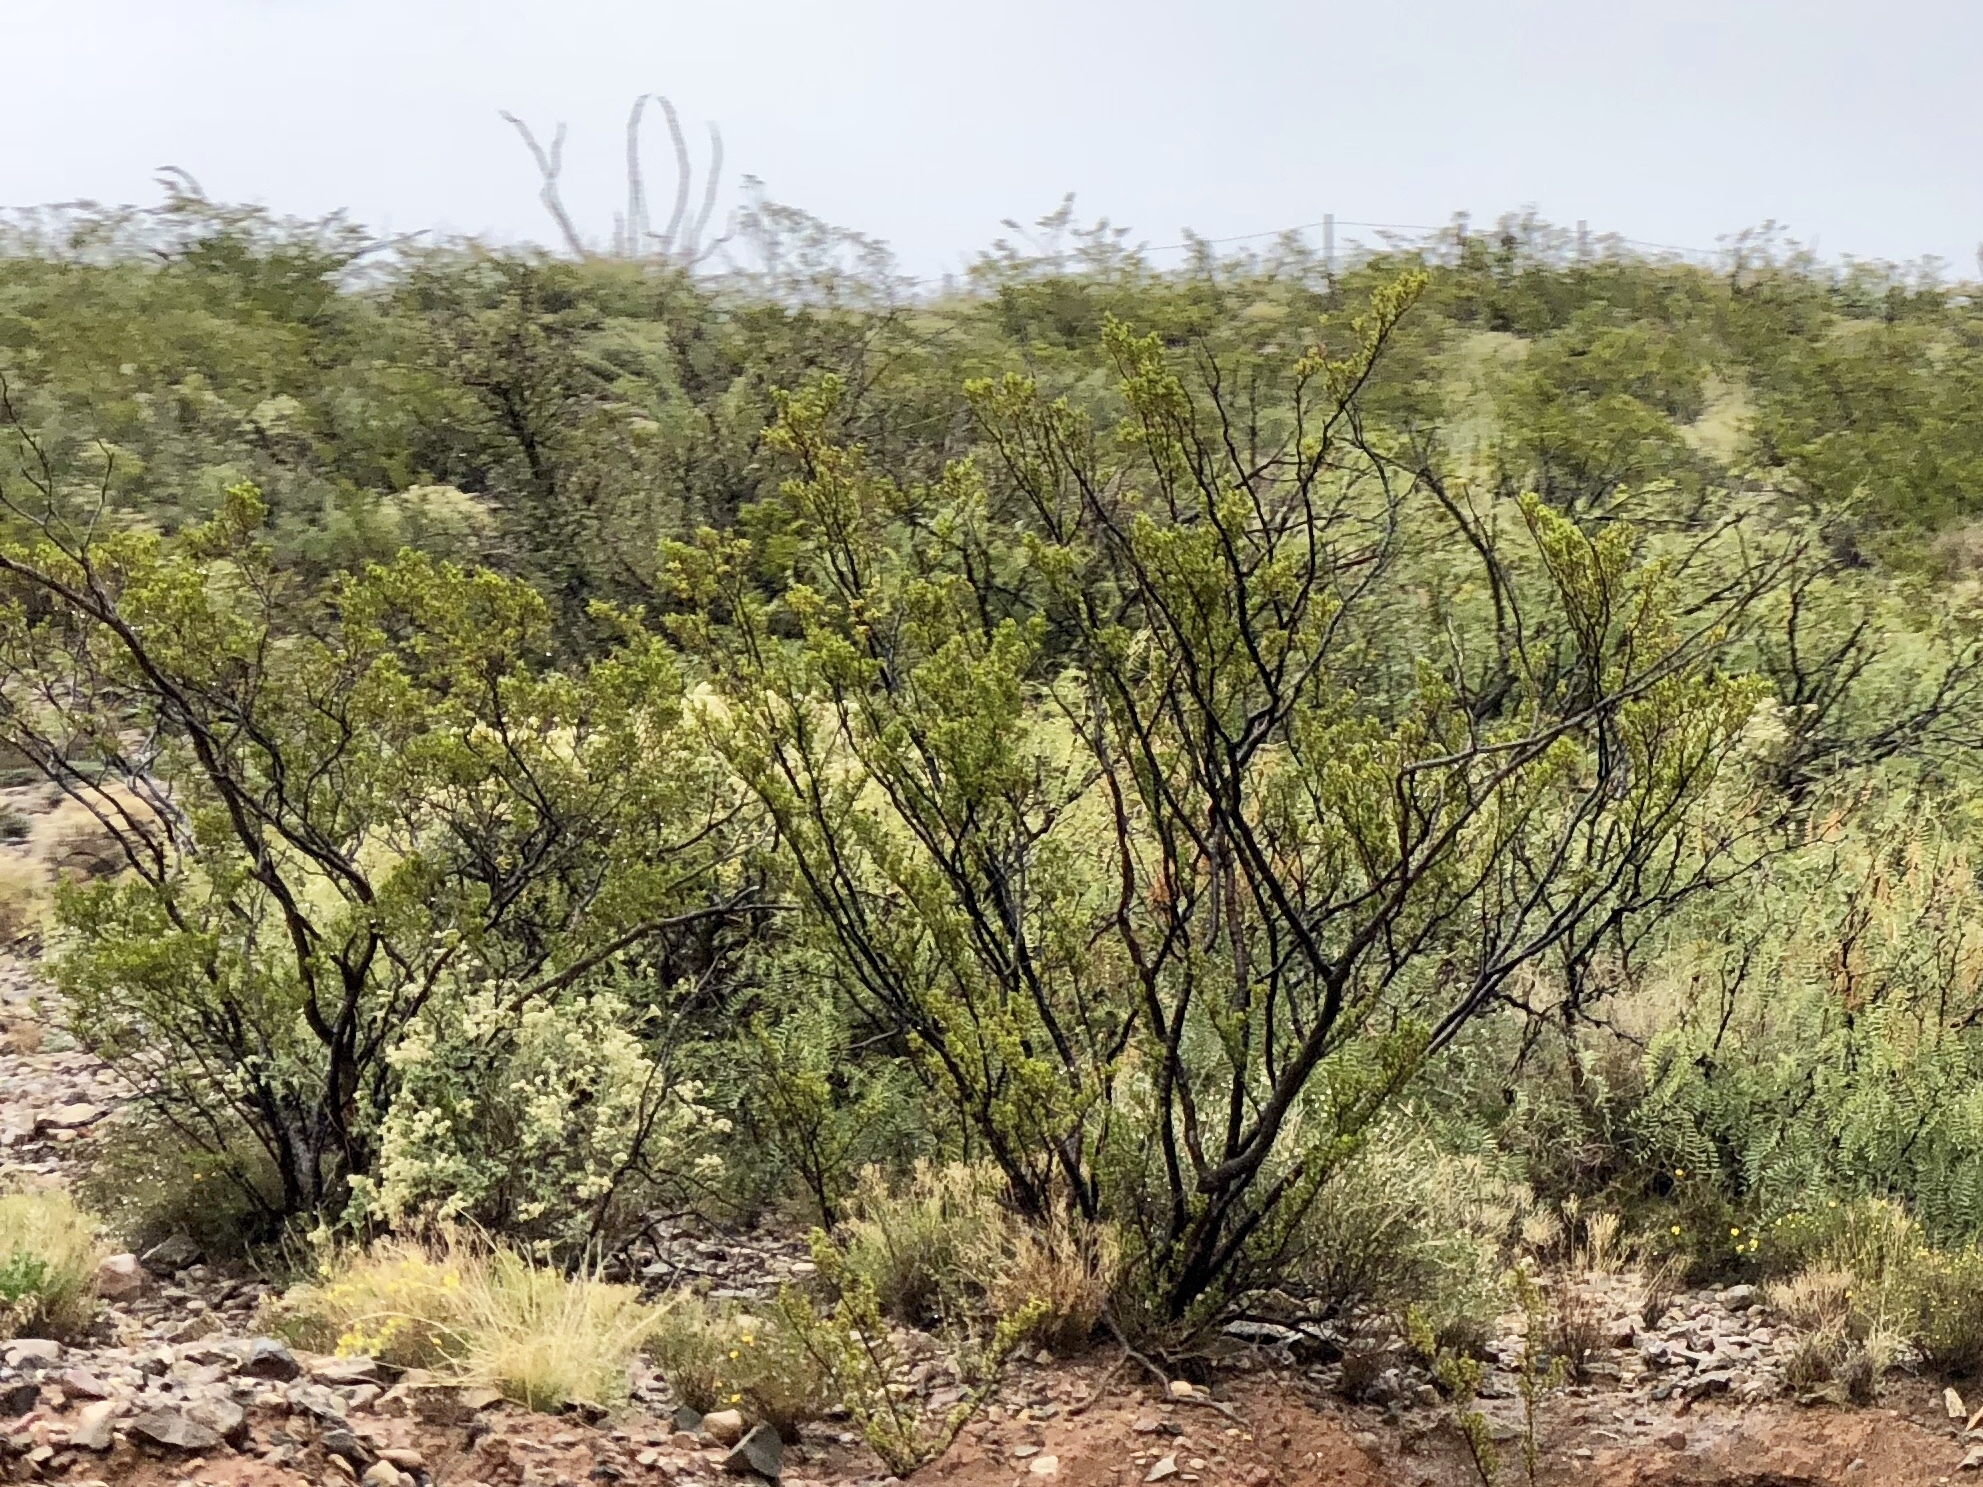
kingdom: Plantae
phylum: Tracheophyta
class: Magnoliopsida
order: Zygophyllales
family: Zygophyllaceae
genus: Larrea
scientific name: Larrea tridentata
